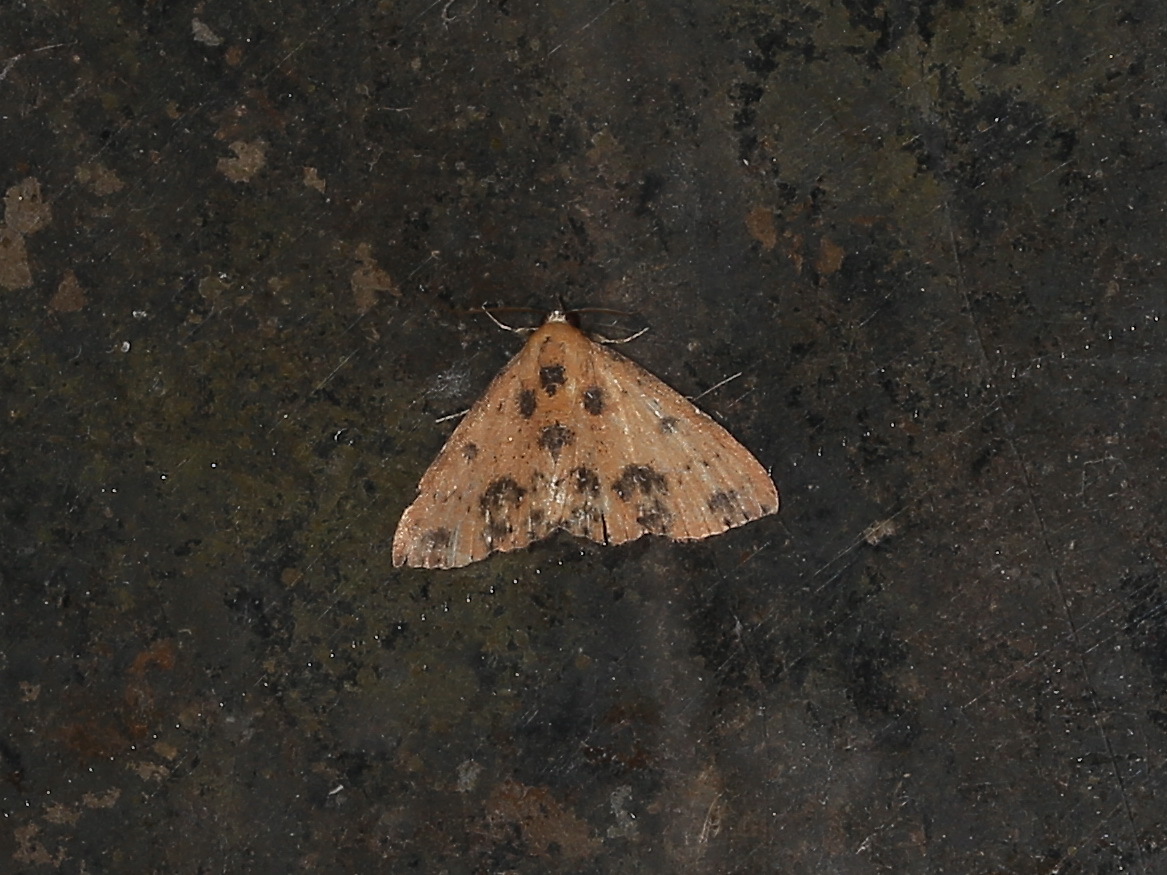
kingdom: Animalia
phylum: Arthropoda
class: Insecta
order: Lepidoptera
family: Erebidae
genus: Corgatha
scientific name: Corgatha semipardata
